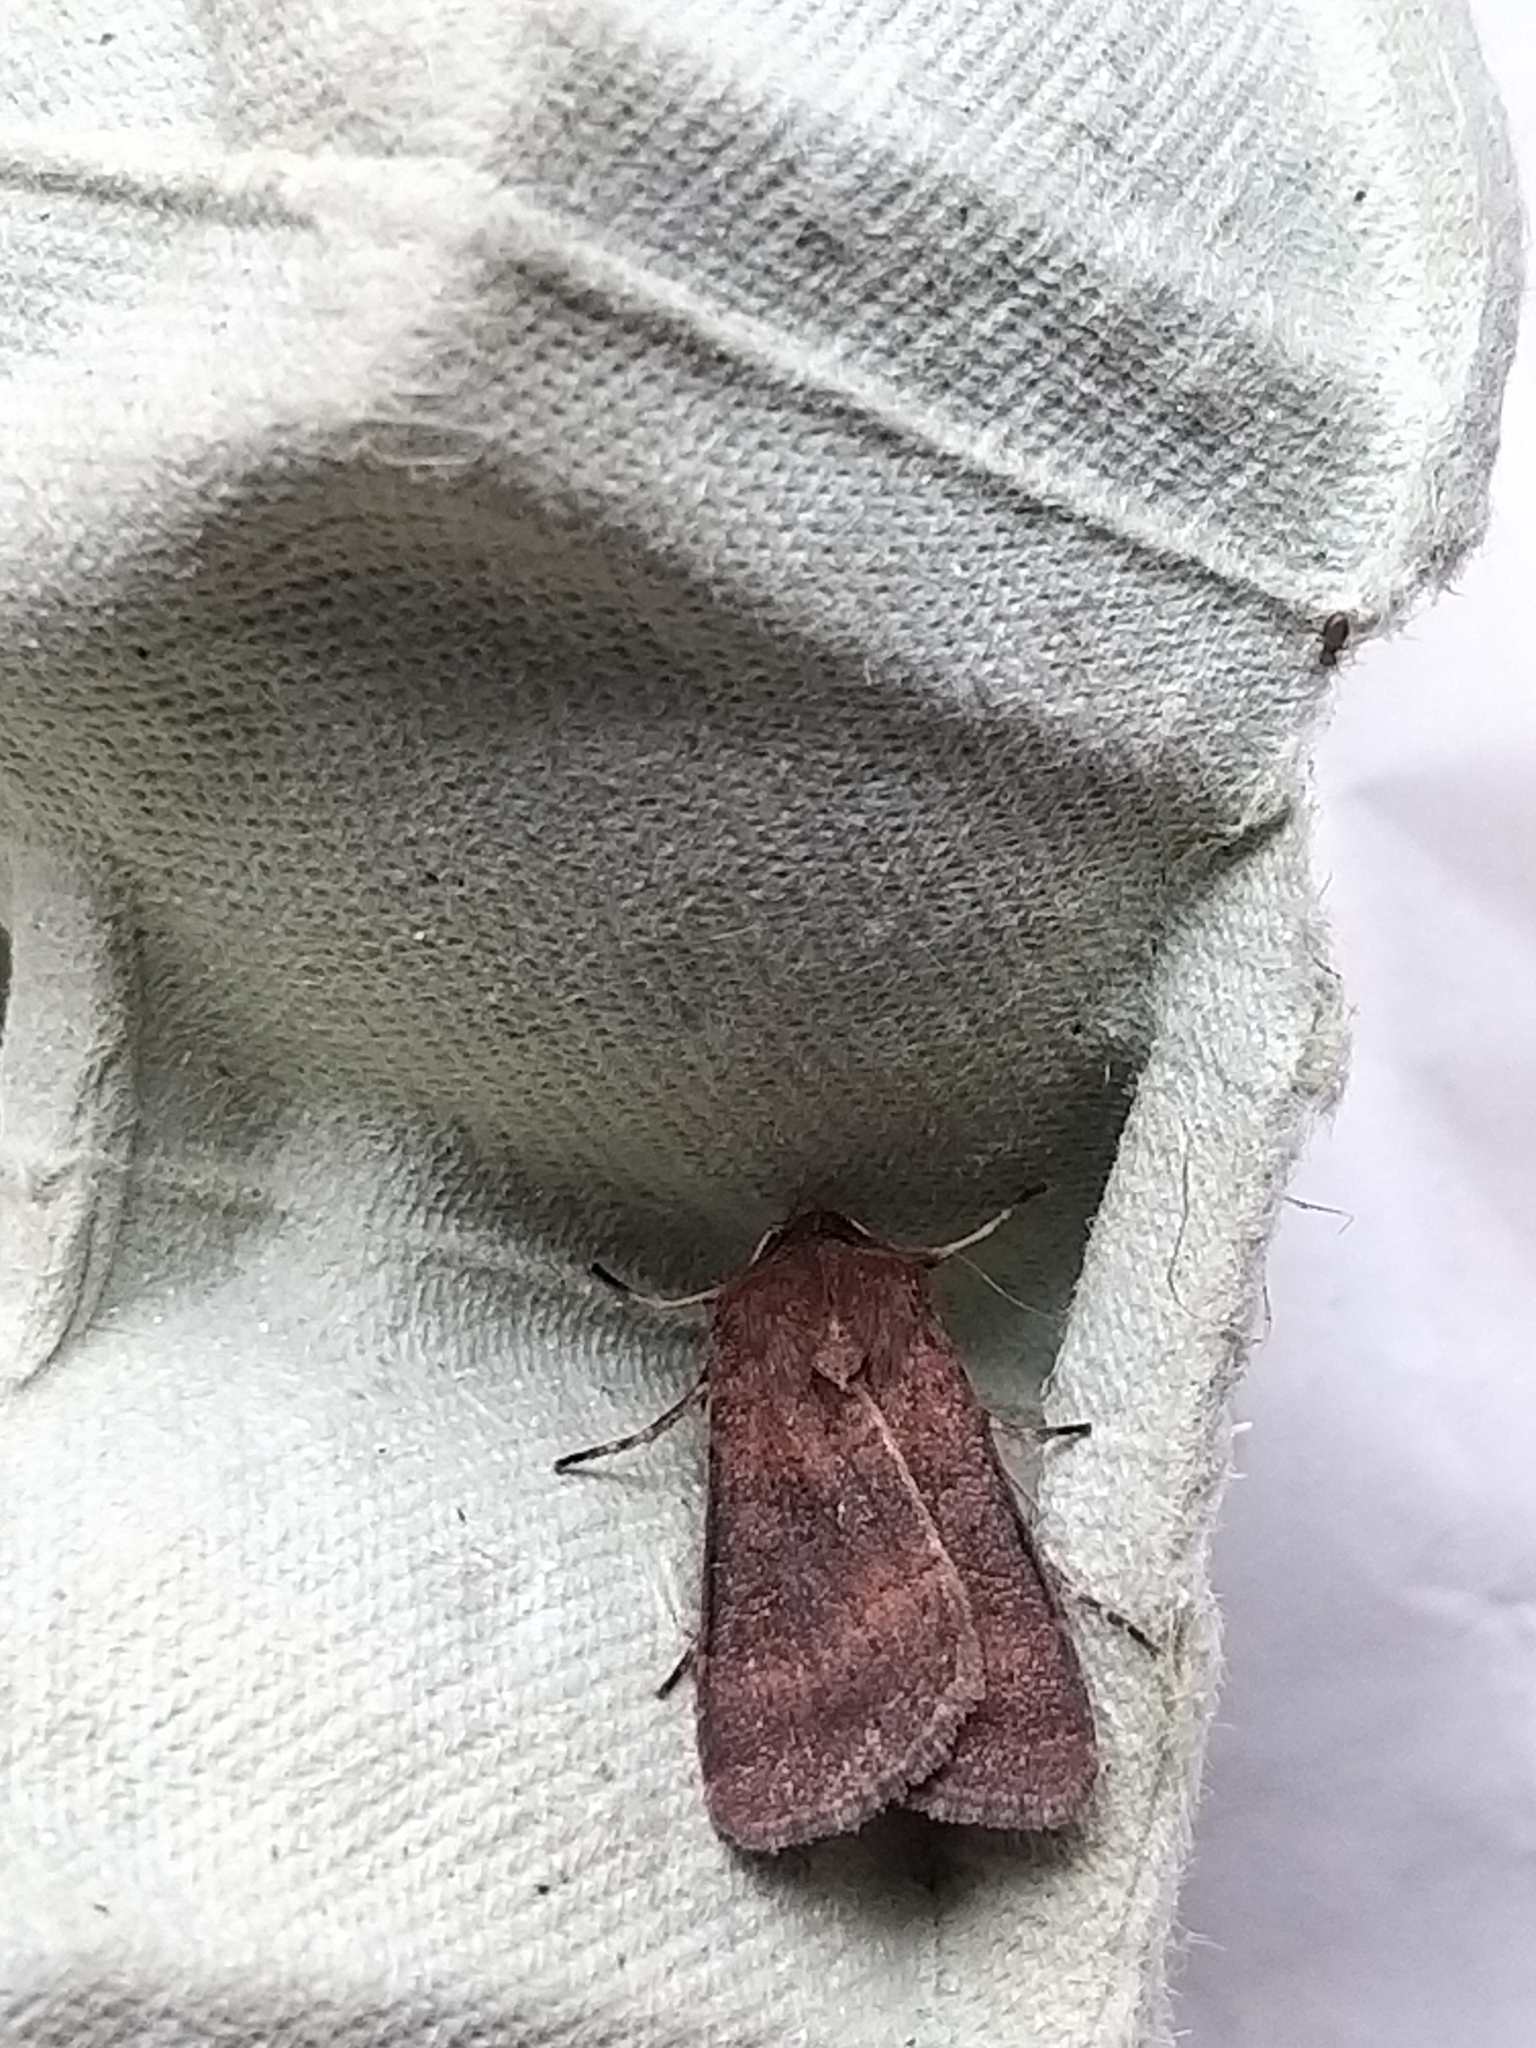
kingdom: Animalia
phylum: Arthropoda
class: Insecta
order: Lepidoptera
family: Noctuidae
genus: Xestia
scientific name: Xestia xanthographa
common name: Square-spot rustic
